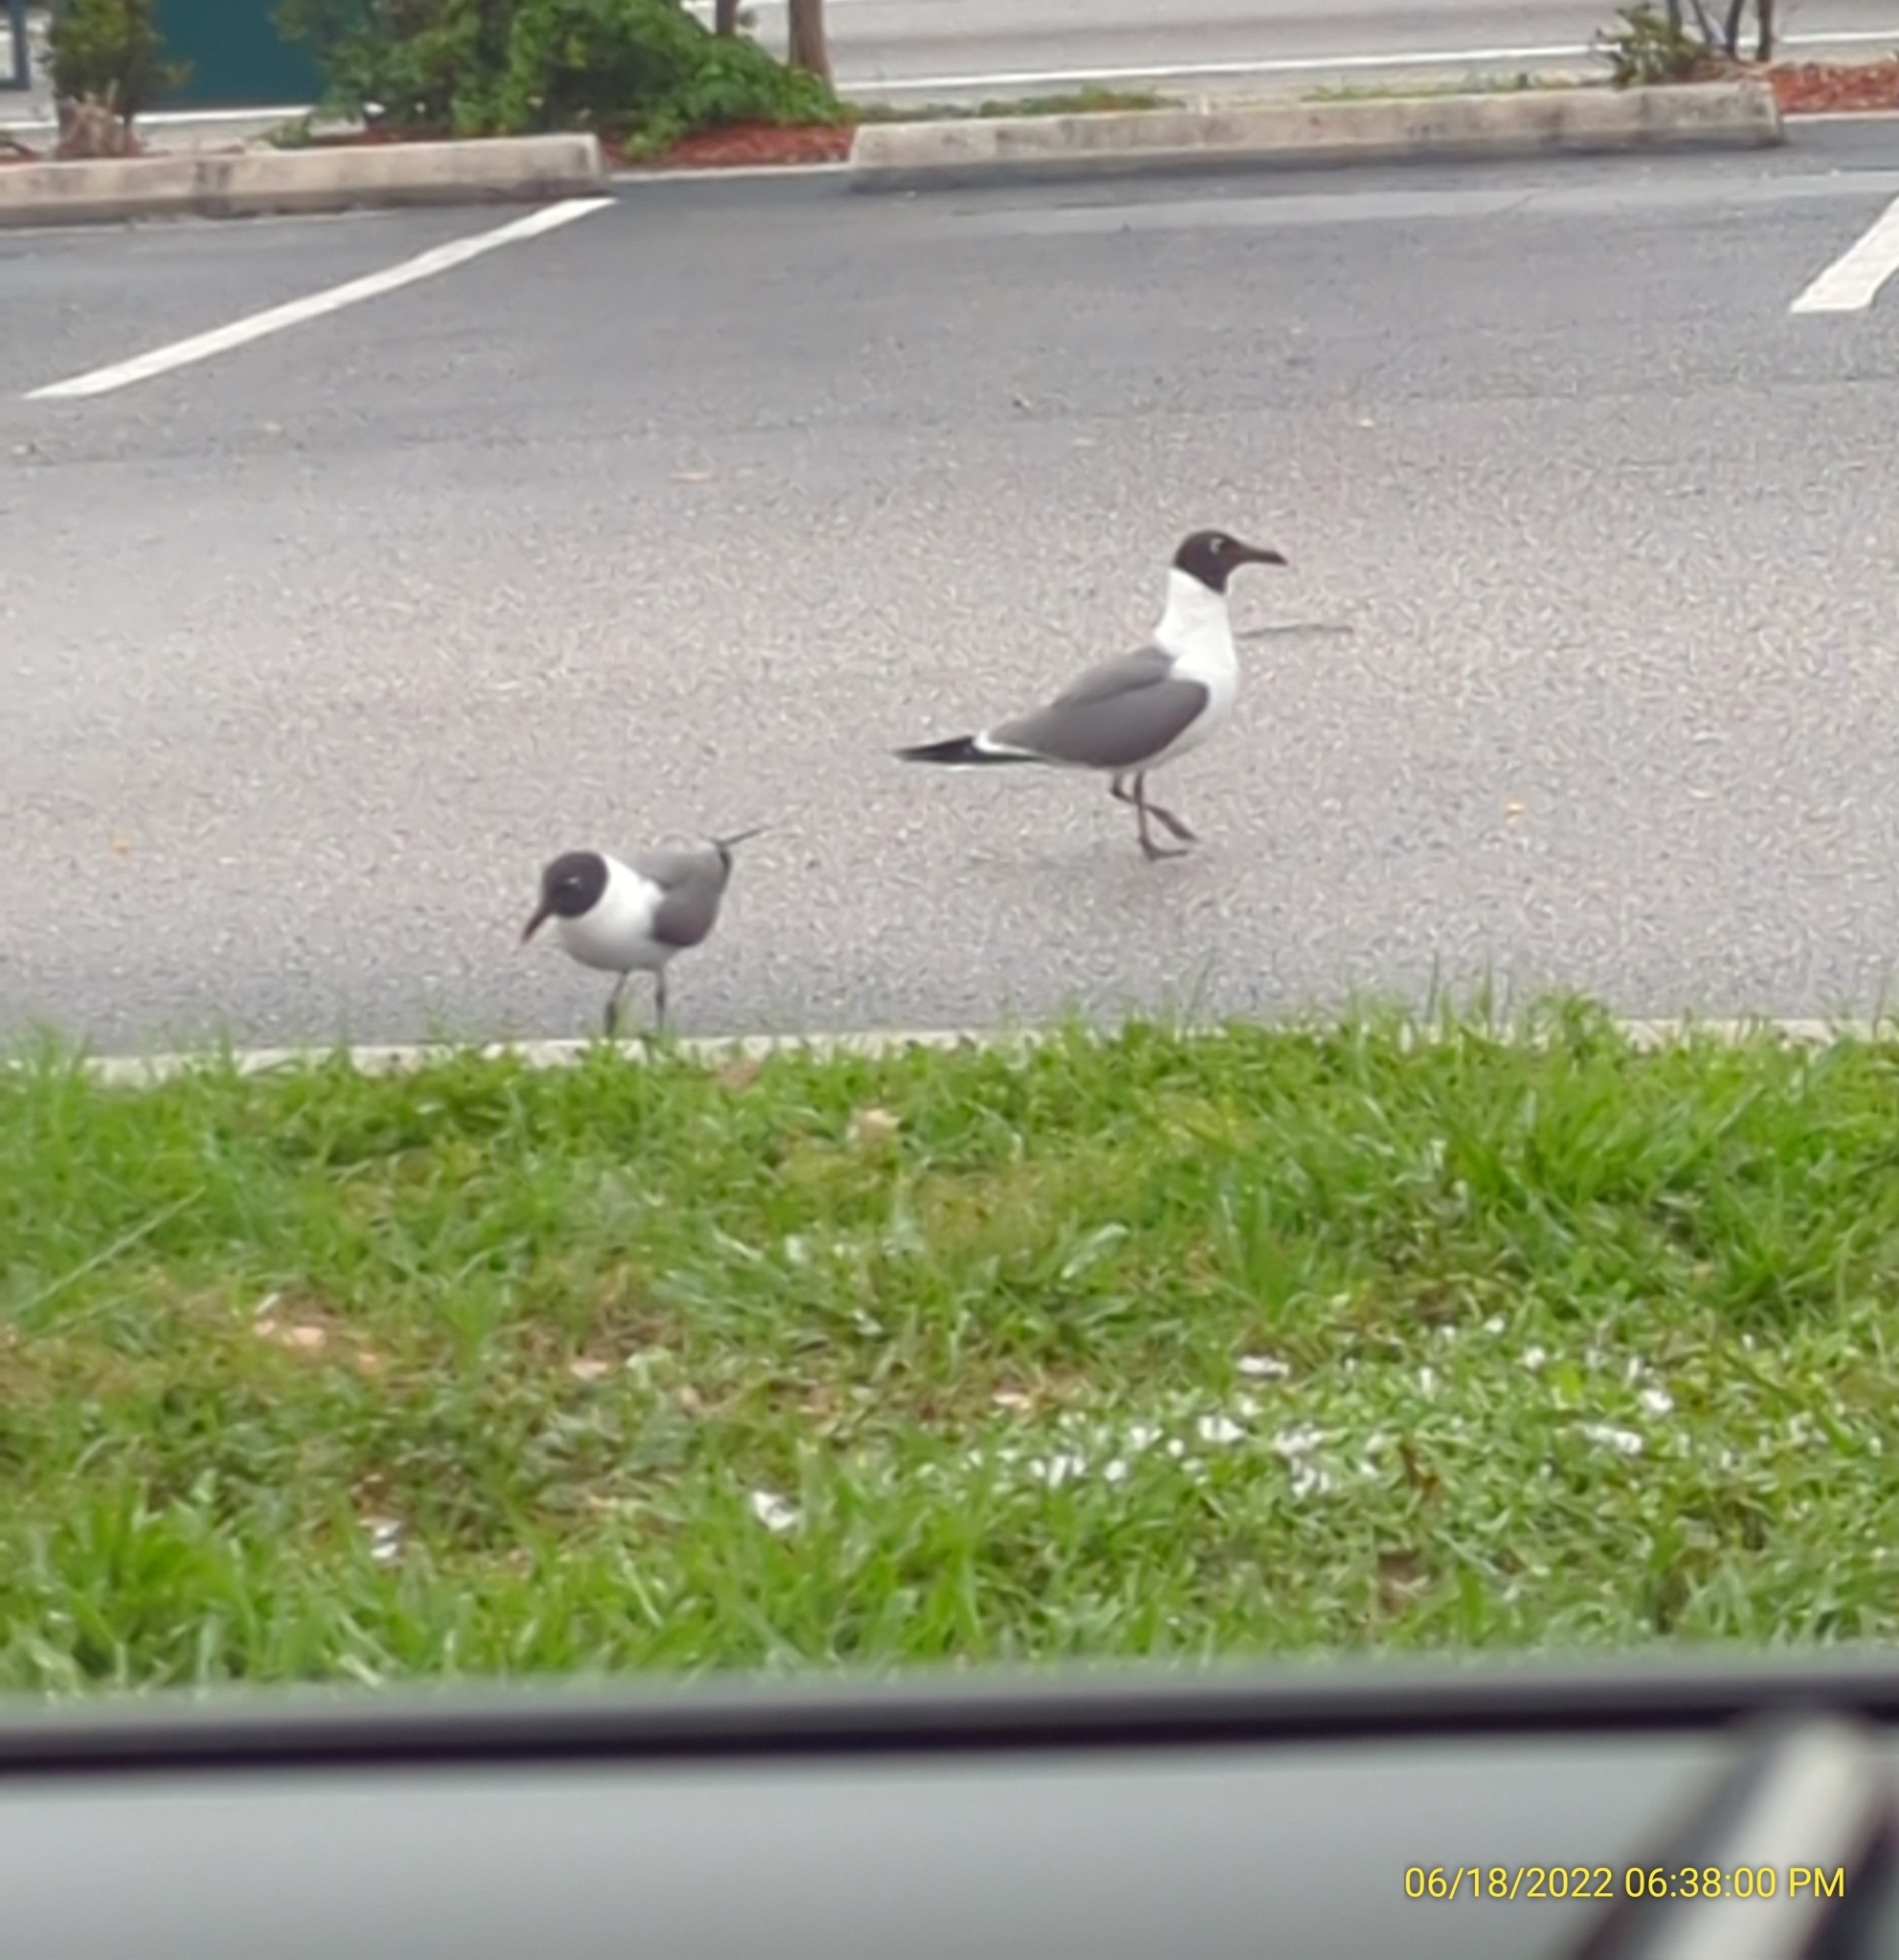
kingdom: Animalia
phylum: Chordata
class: Aves
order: Charadriiformes
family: Laridae
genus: Leucophaeus
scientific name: Leucophaeus atricilla
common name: Laughing gull
